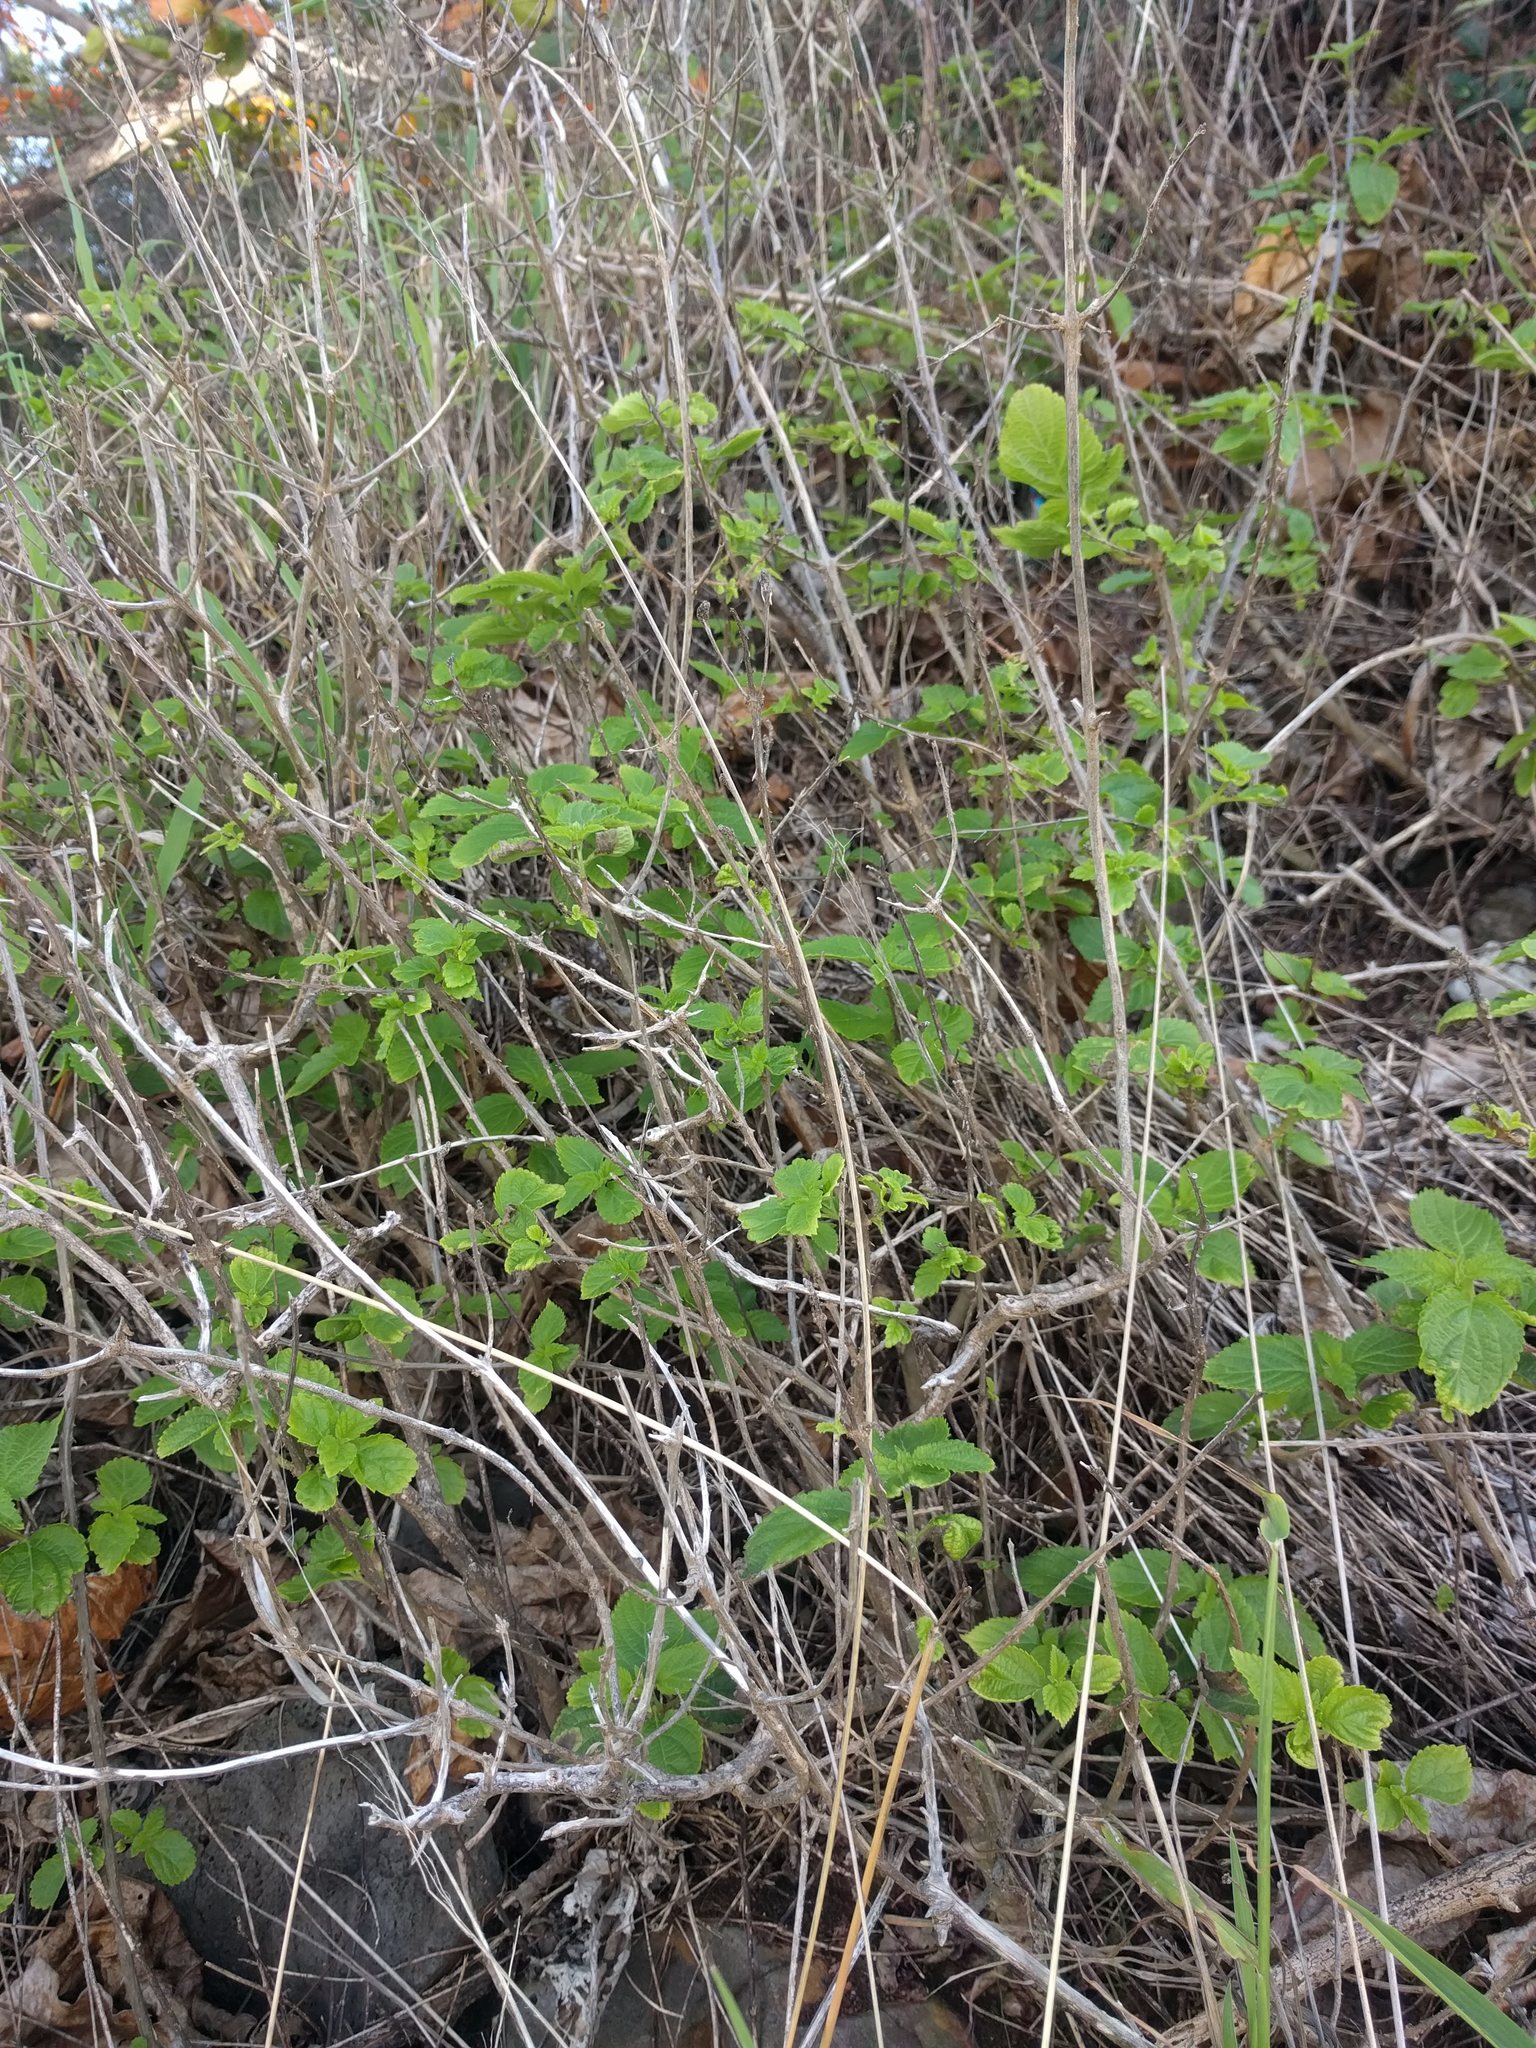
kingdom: Plantae
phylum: Tracheophyta
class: Magnoliopsida
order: Lamiales
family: Verbenaceae
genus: Lantana
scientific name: Lantana camara
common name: Lantana
